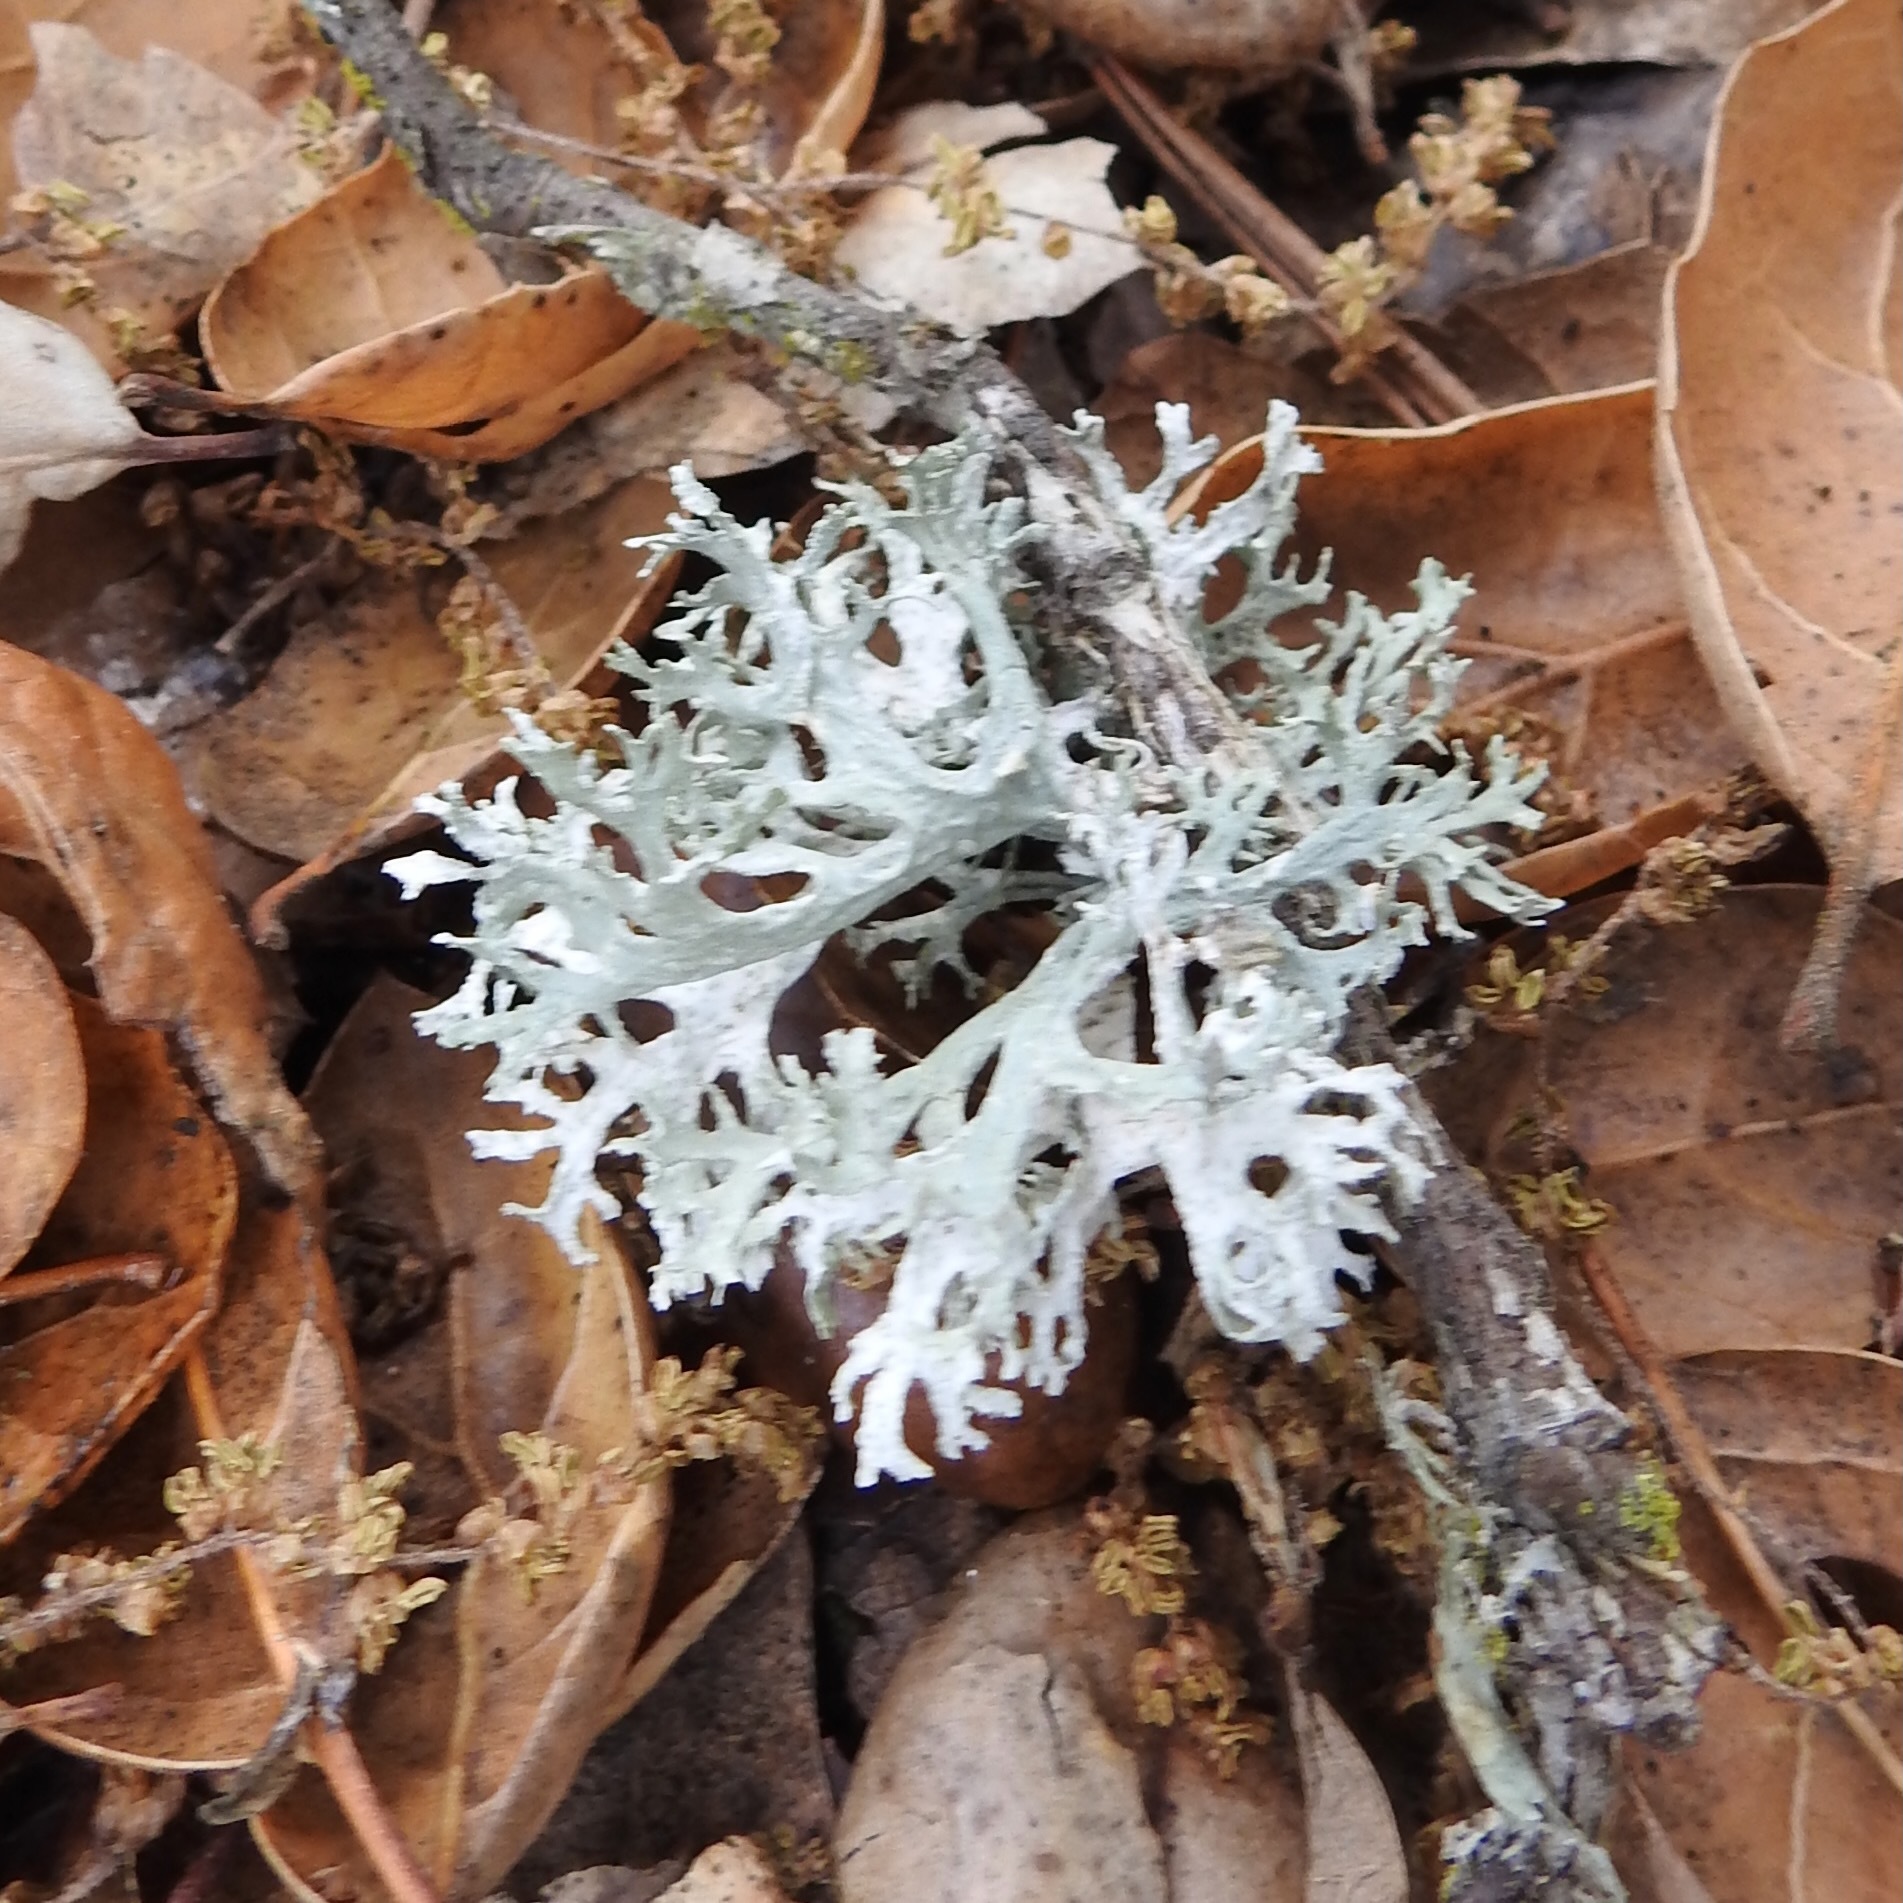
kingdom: Fungi
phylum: Ascomycota
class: Lecanoromycetes
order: Lecanorales
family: Parmeliaceae
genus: Evernia
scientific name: Evernia prunastri
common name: Oak moss
